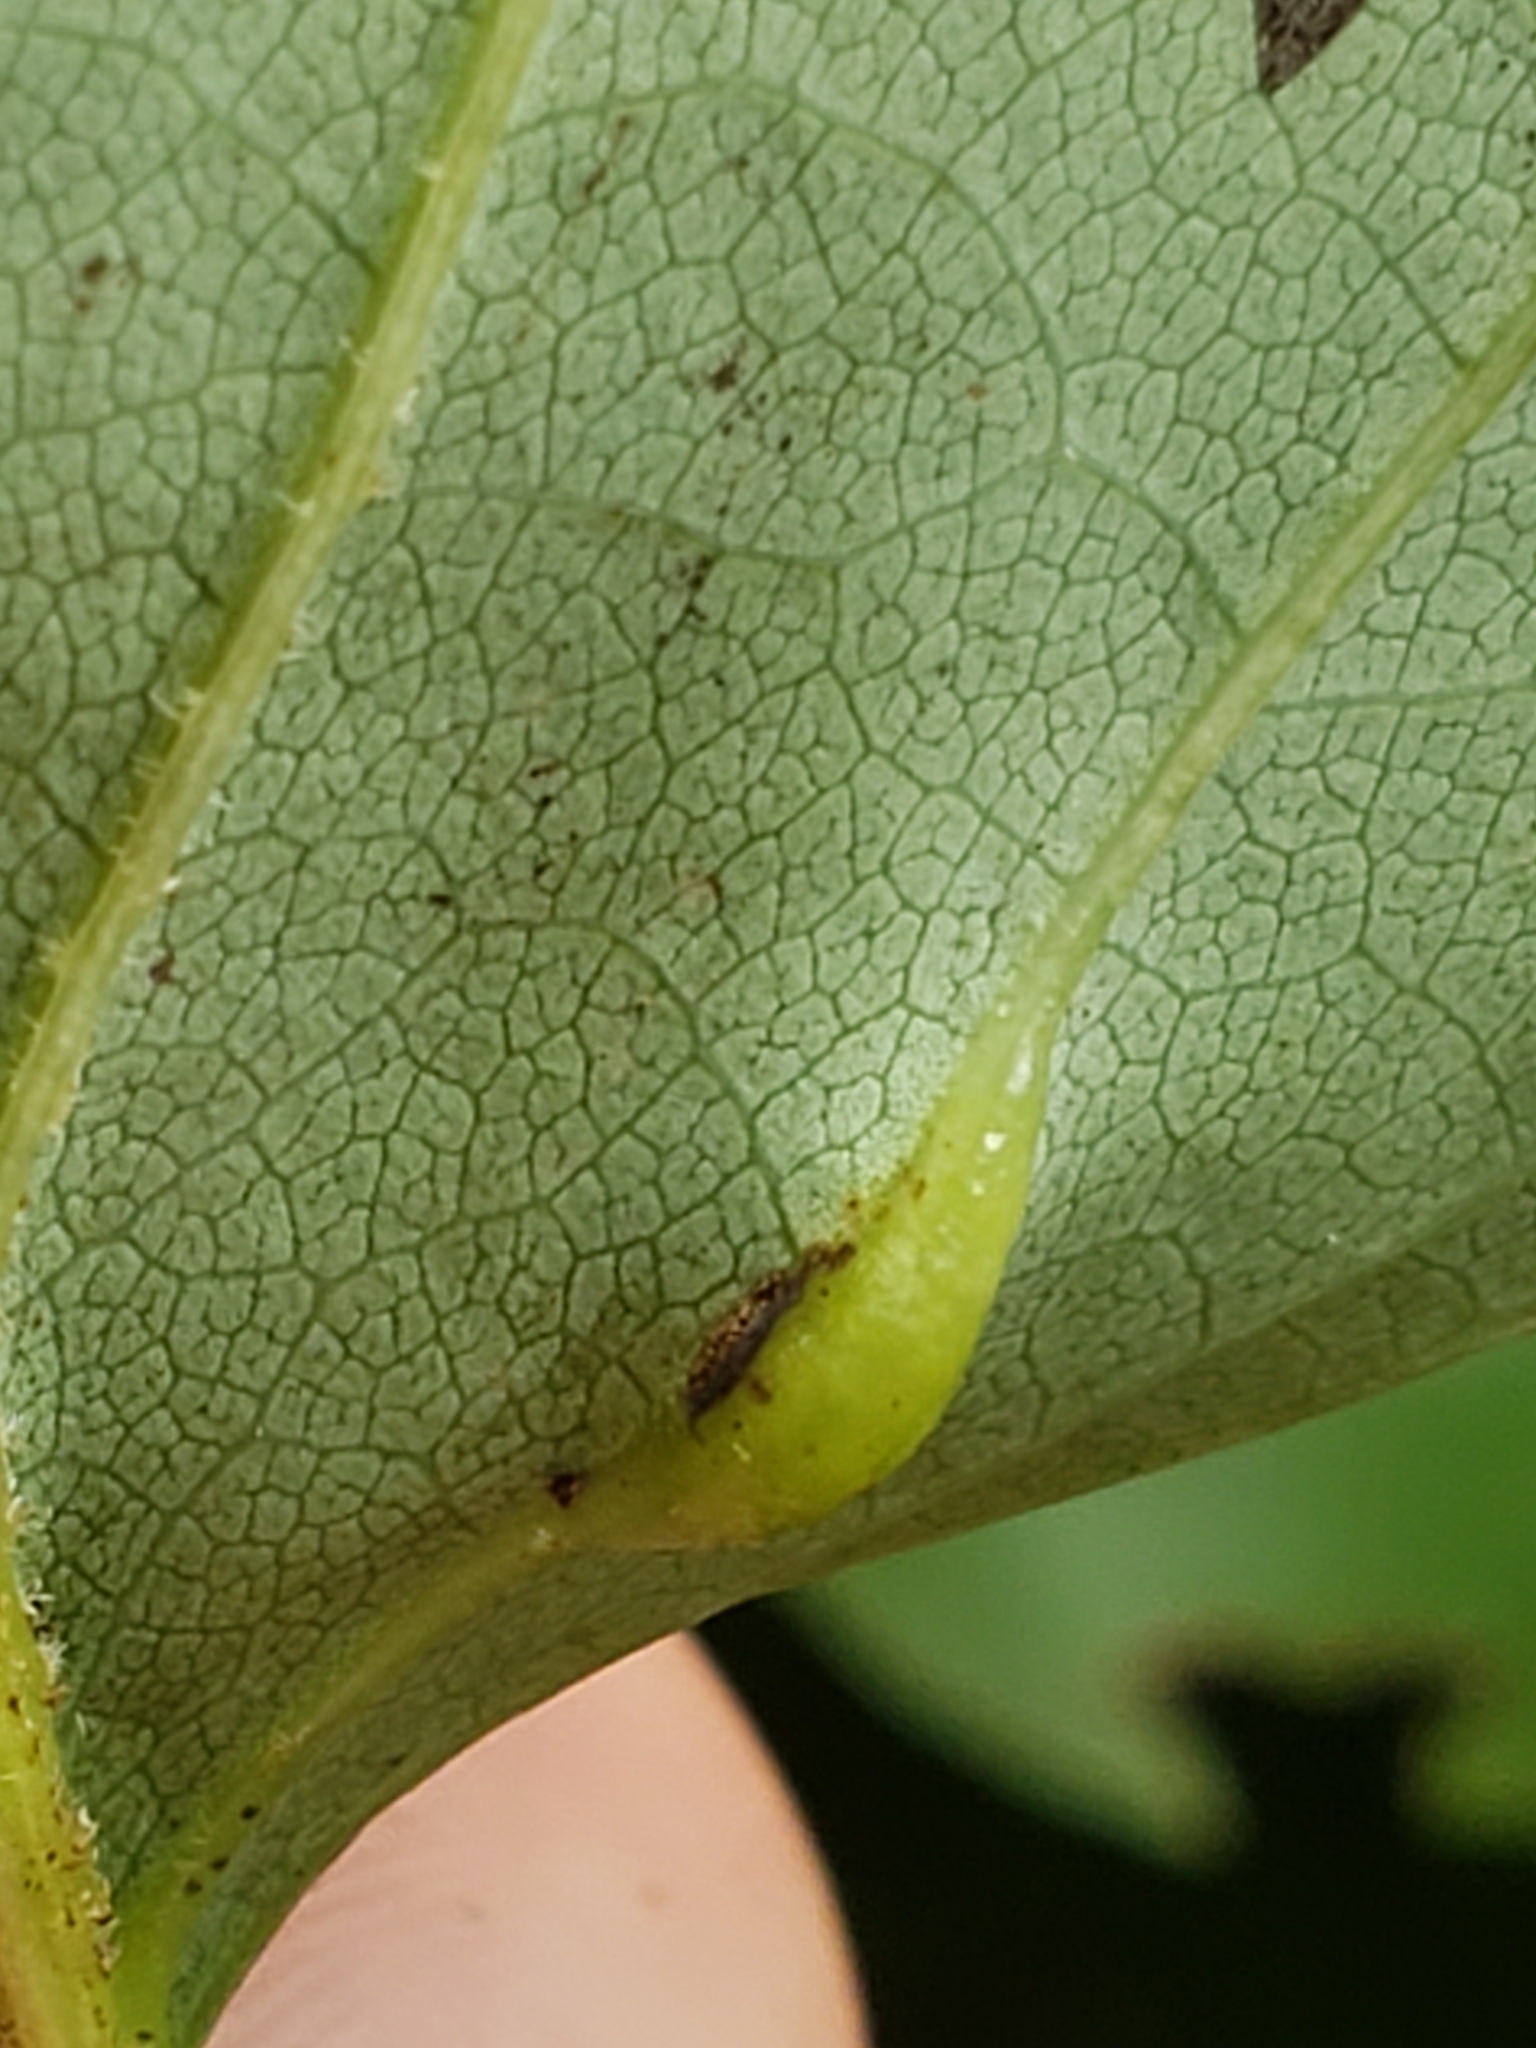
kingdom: Animalia
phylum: Arthropoda
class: Insecta
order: Diptera
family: Cecidomyiidae
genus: Resseliella
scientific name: Resseliella tulipiferae
